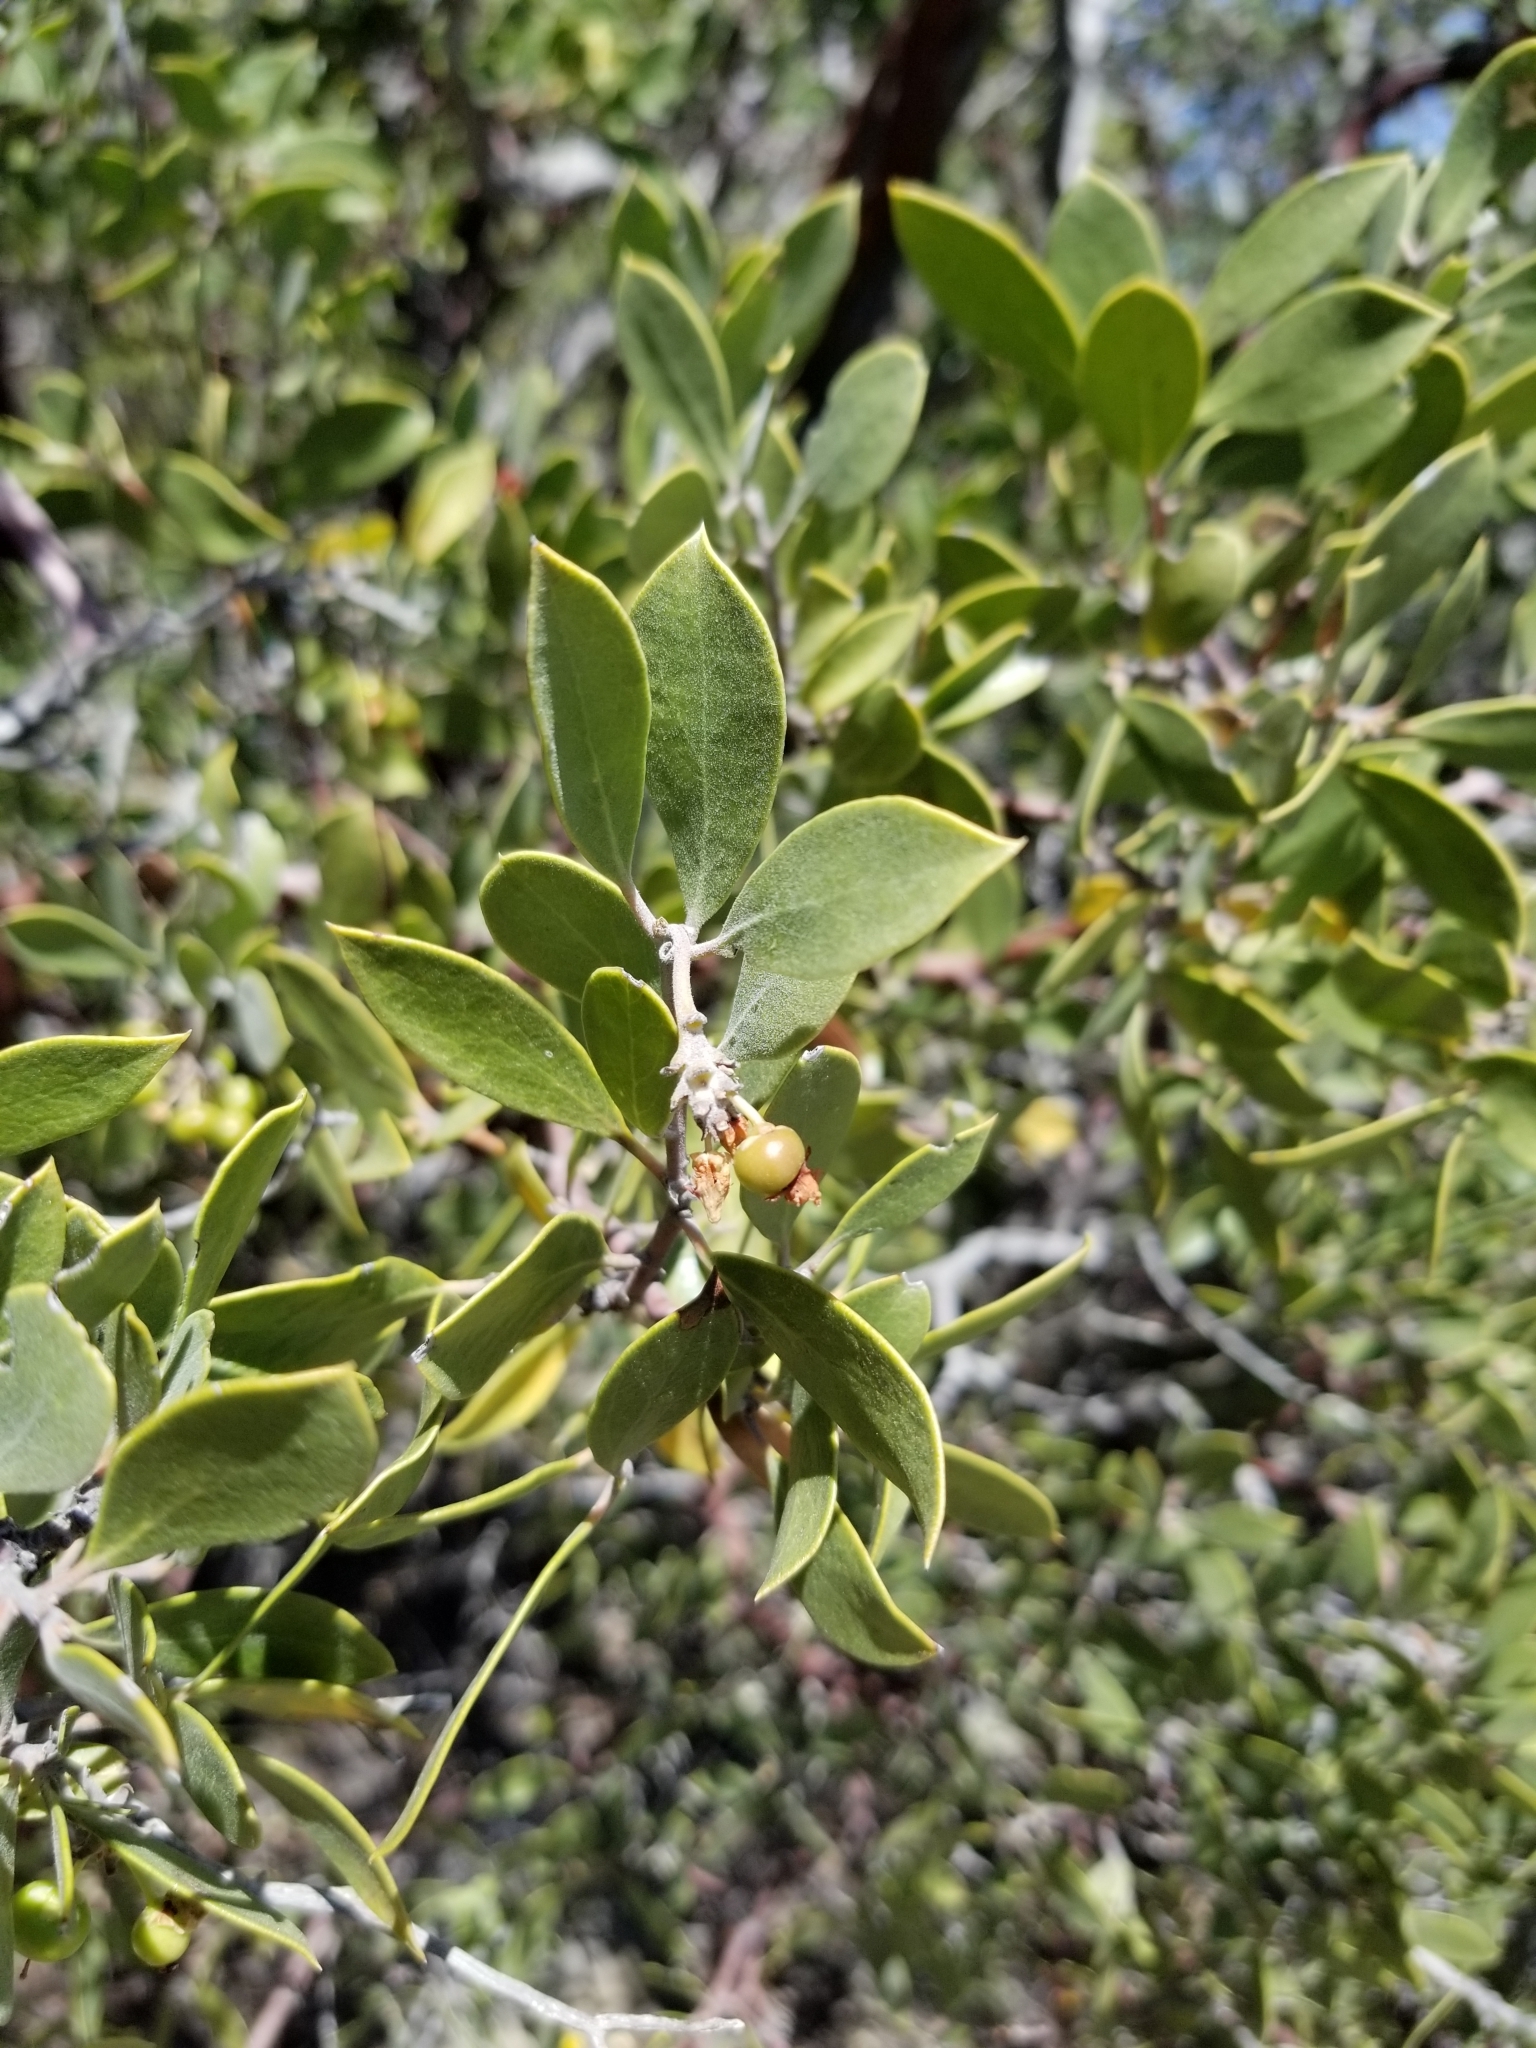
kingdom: Plantae
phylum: Tracheophyta
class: Magnoliopsida
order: Ericales
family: Ericaceae
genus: Arctostaphylos
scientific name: Arctostaphylos pungens
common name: Mexican manzanita
